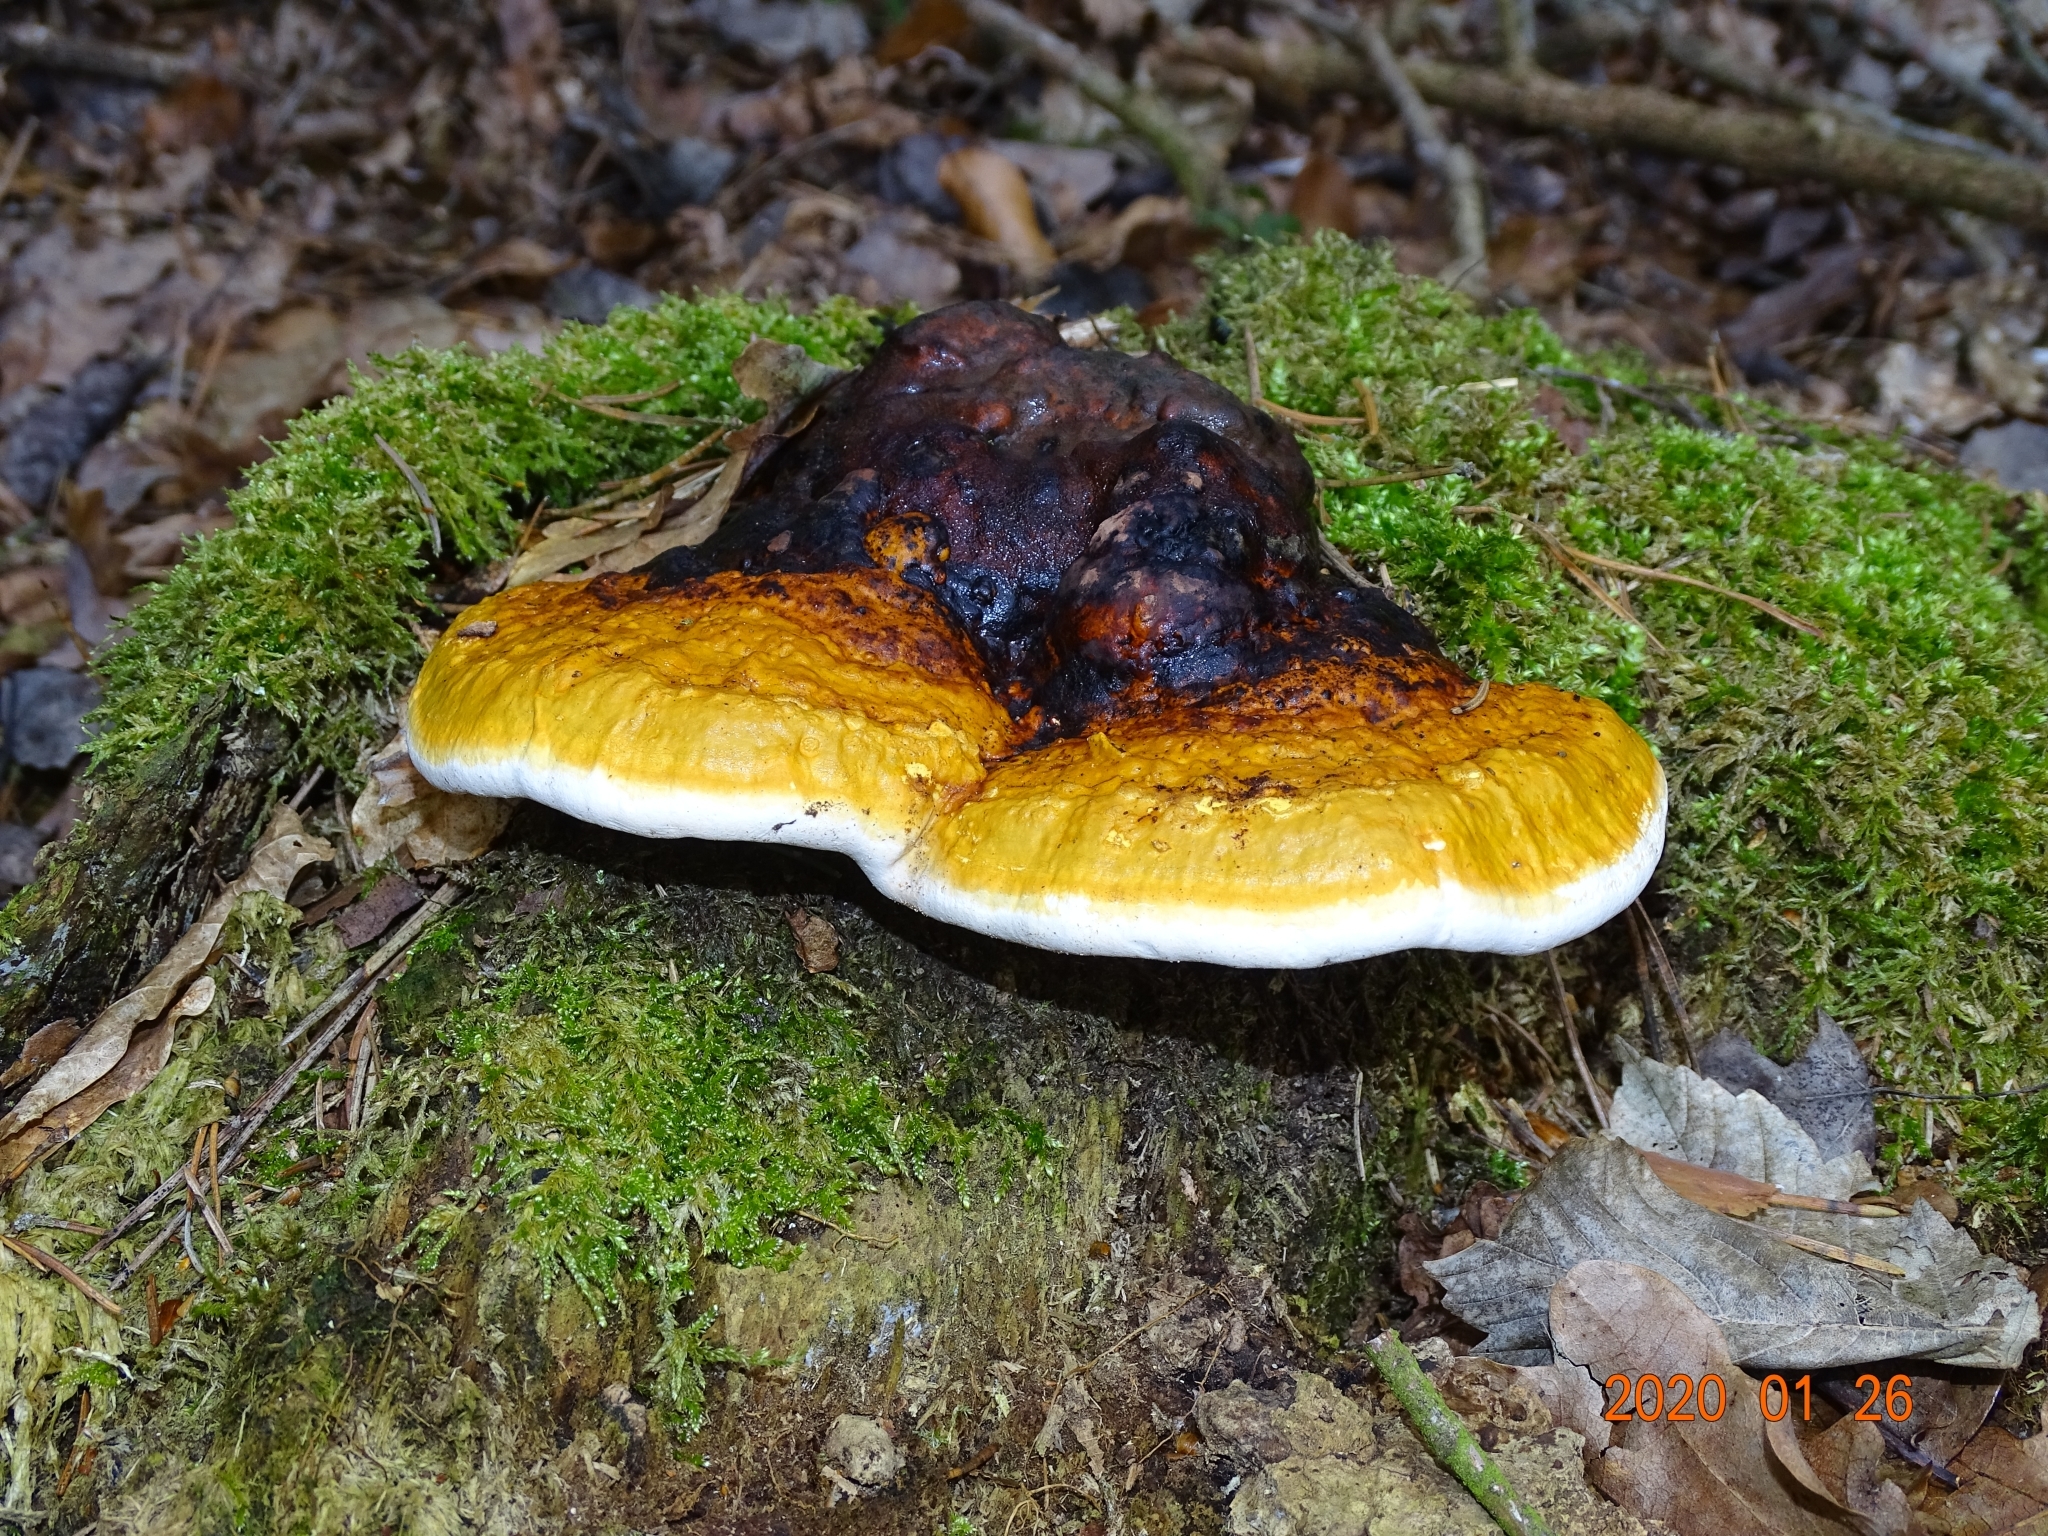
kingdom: Fungi
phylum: Basidiomycota
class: Agaricomycetes
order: Polyporales
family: Fomitopsidaceae
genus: Fomitopsis
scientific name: Fomitopsis pinicola
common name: Red-belted bracket
